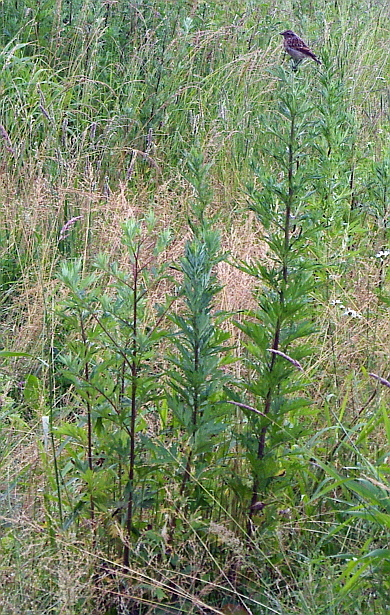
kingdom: Animalia
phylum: Chordata
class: Aves
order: Passeriformes
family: Muscicapidae
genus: Saxicola
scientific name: Saxicola rubetra
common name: Whinchat
